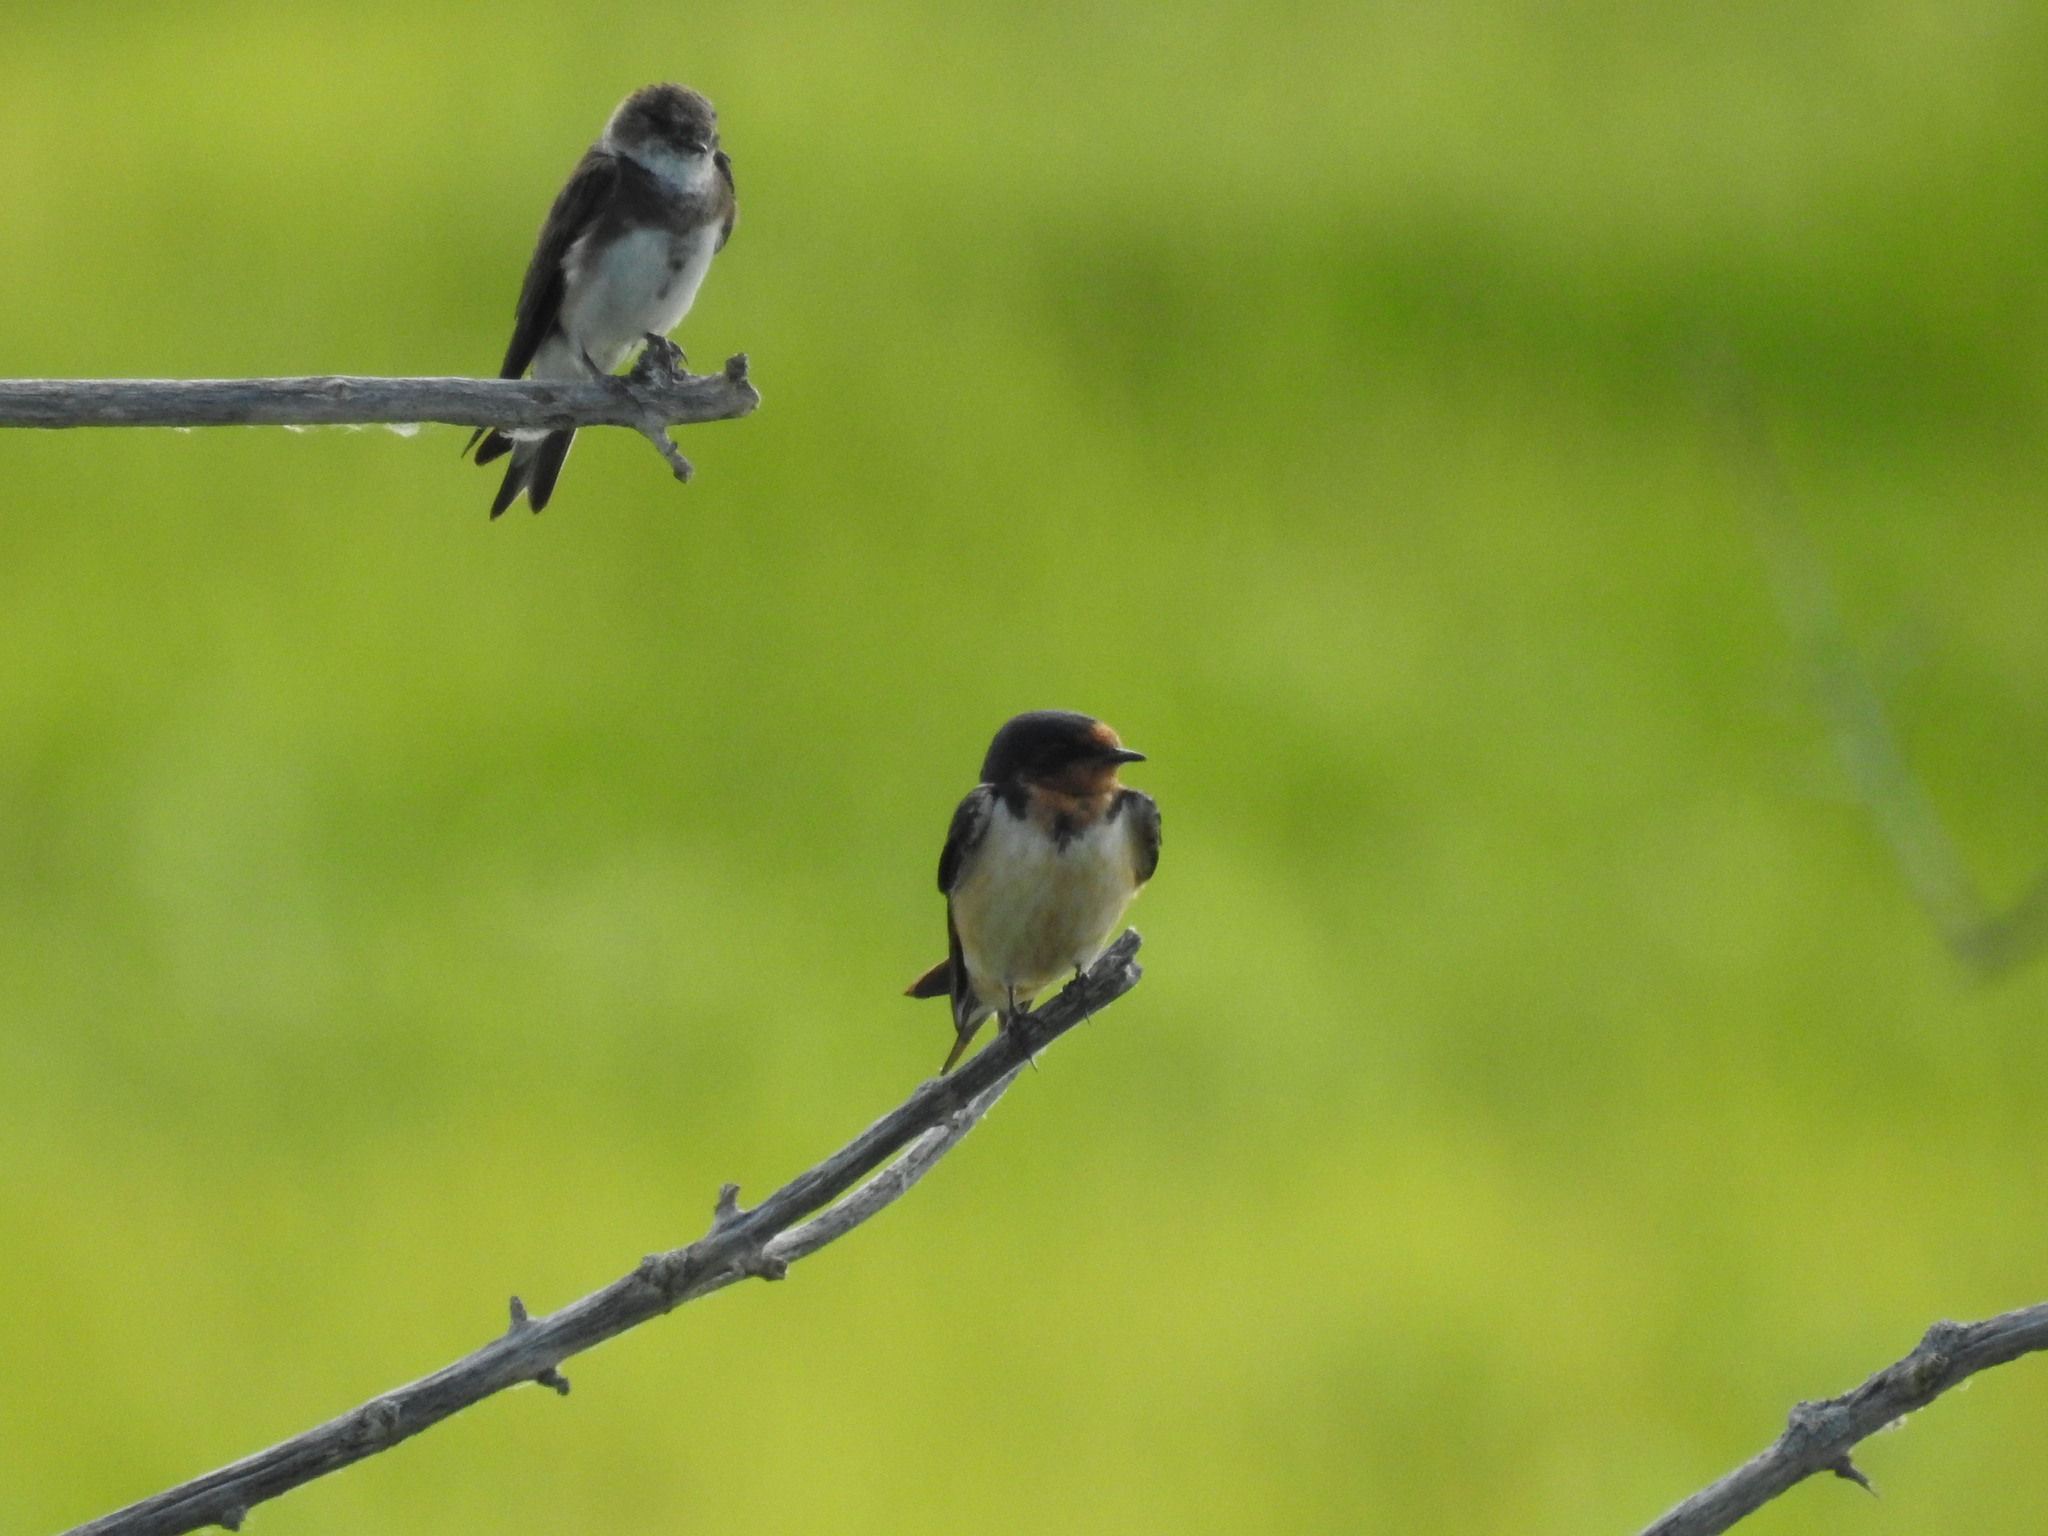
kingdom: Animalia
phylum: Chordata
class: Aves
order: Passeriformes
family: Hirundinidae
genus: Riparia
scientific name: Riparia riparia
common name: Sand martin
